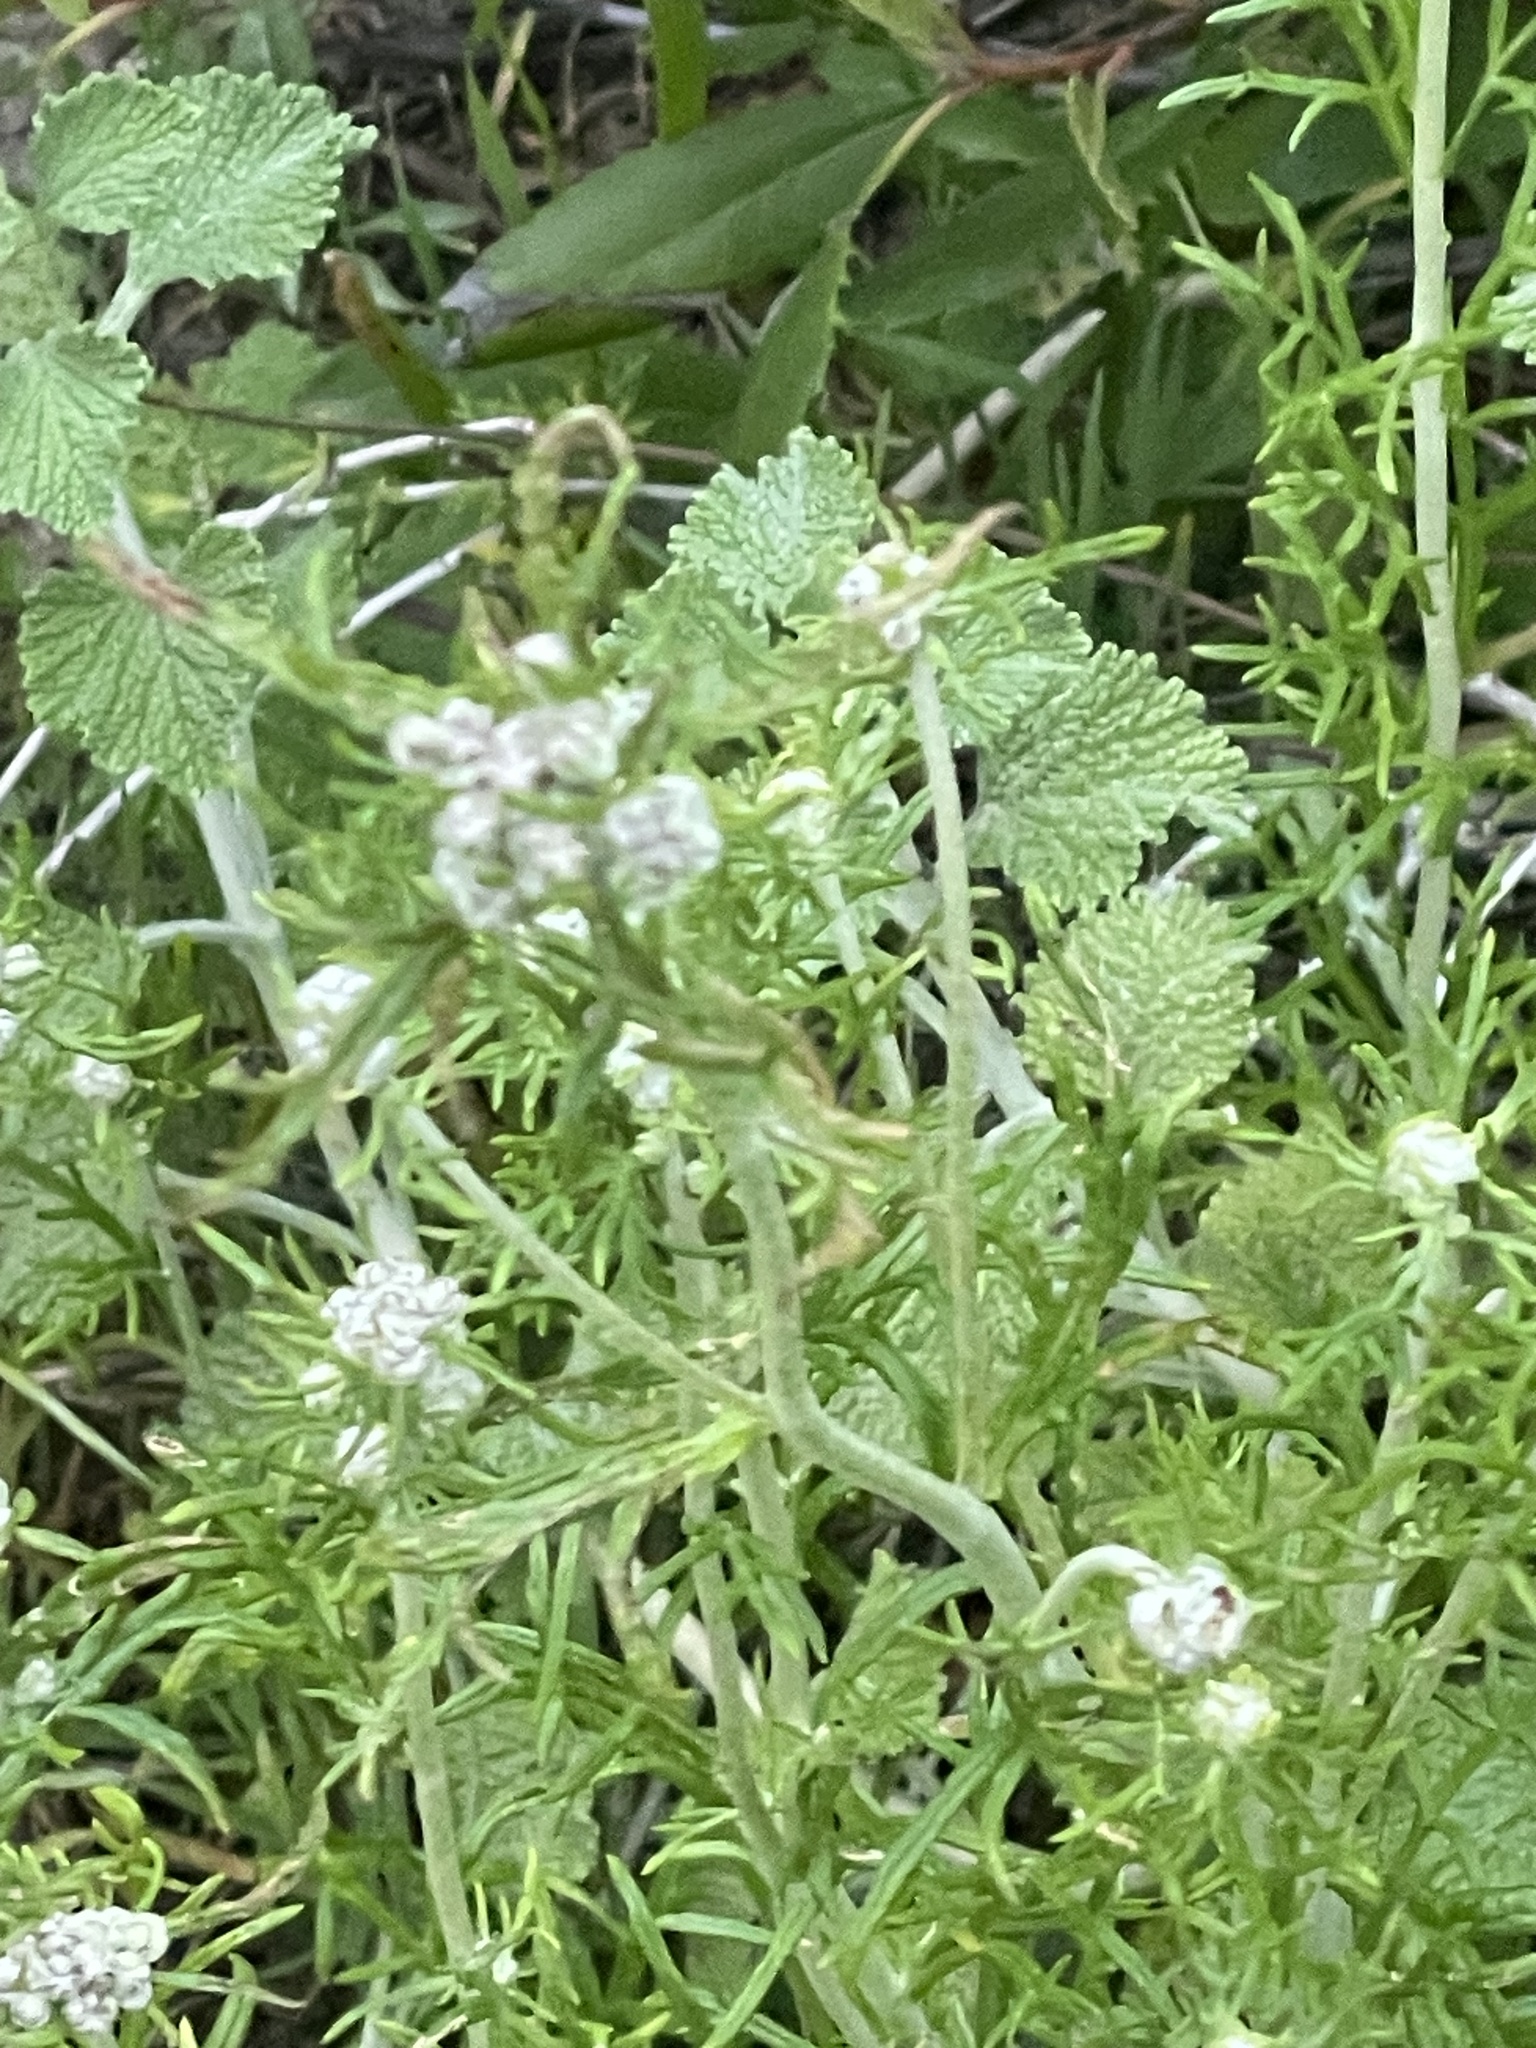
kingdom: Plantae
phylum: Tracheophyta
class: Magnoliopsida
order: Apiales
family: Apiaceae
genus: Daucus
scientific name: Daucus pusillus
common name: Southwest wild carrot
